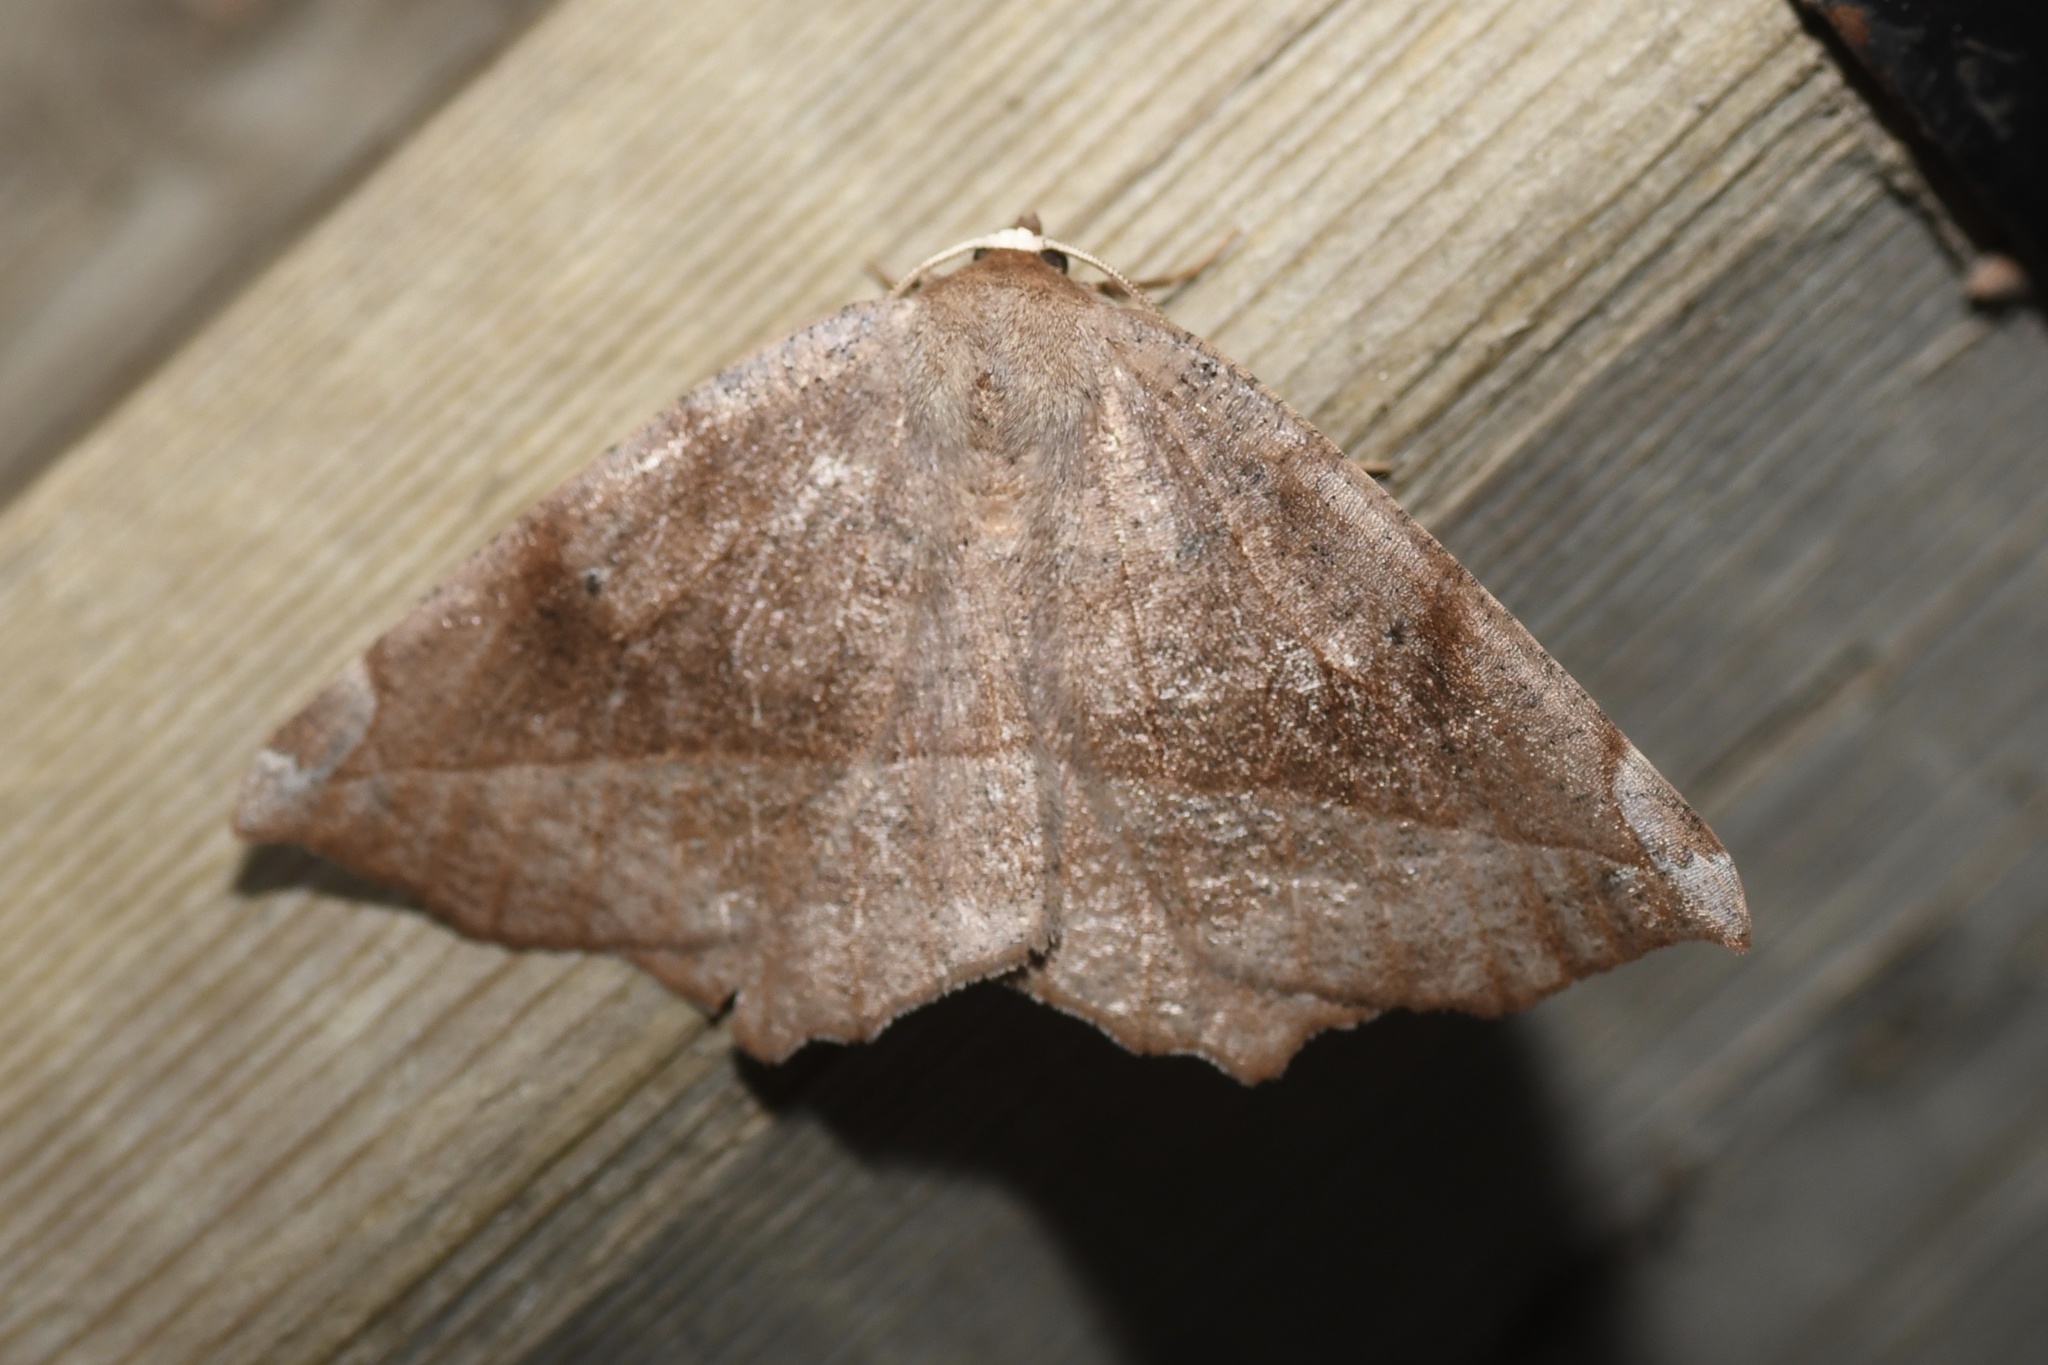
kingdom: Animalia
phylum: Arthropoda
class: Insecta
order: Lepidoptera
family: Geometridae
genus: Eutrapela
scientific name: Eutrapela clemataria
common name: Curved-toothed geometer
